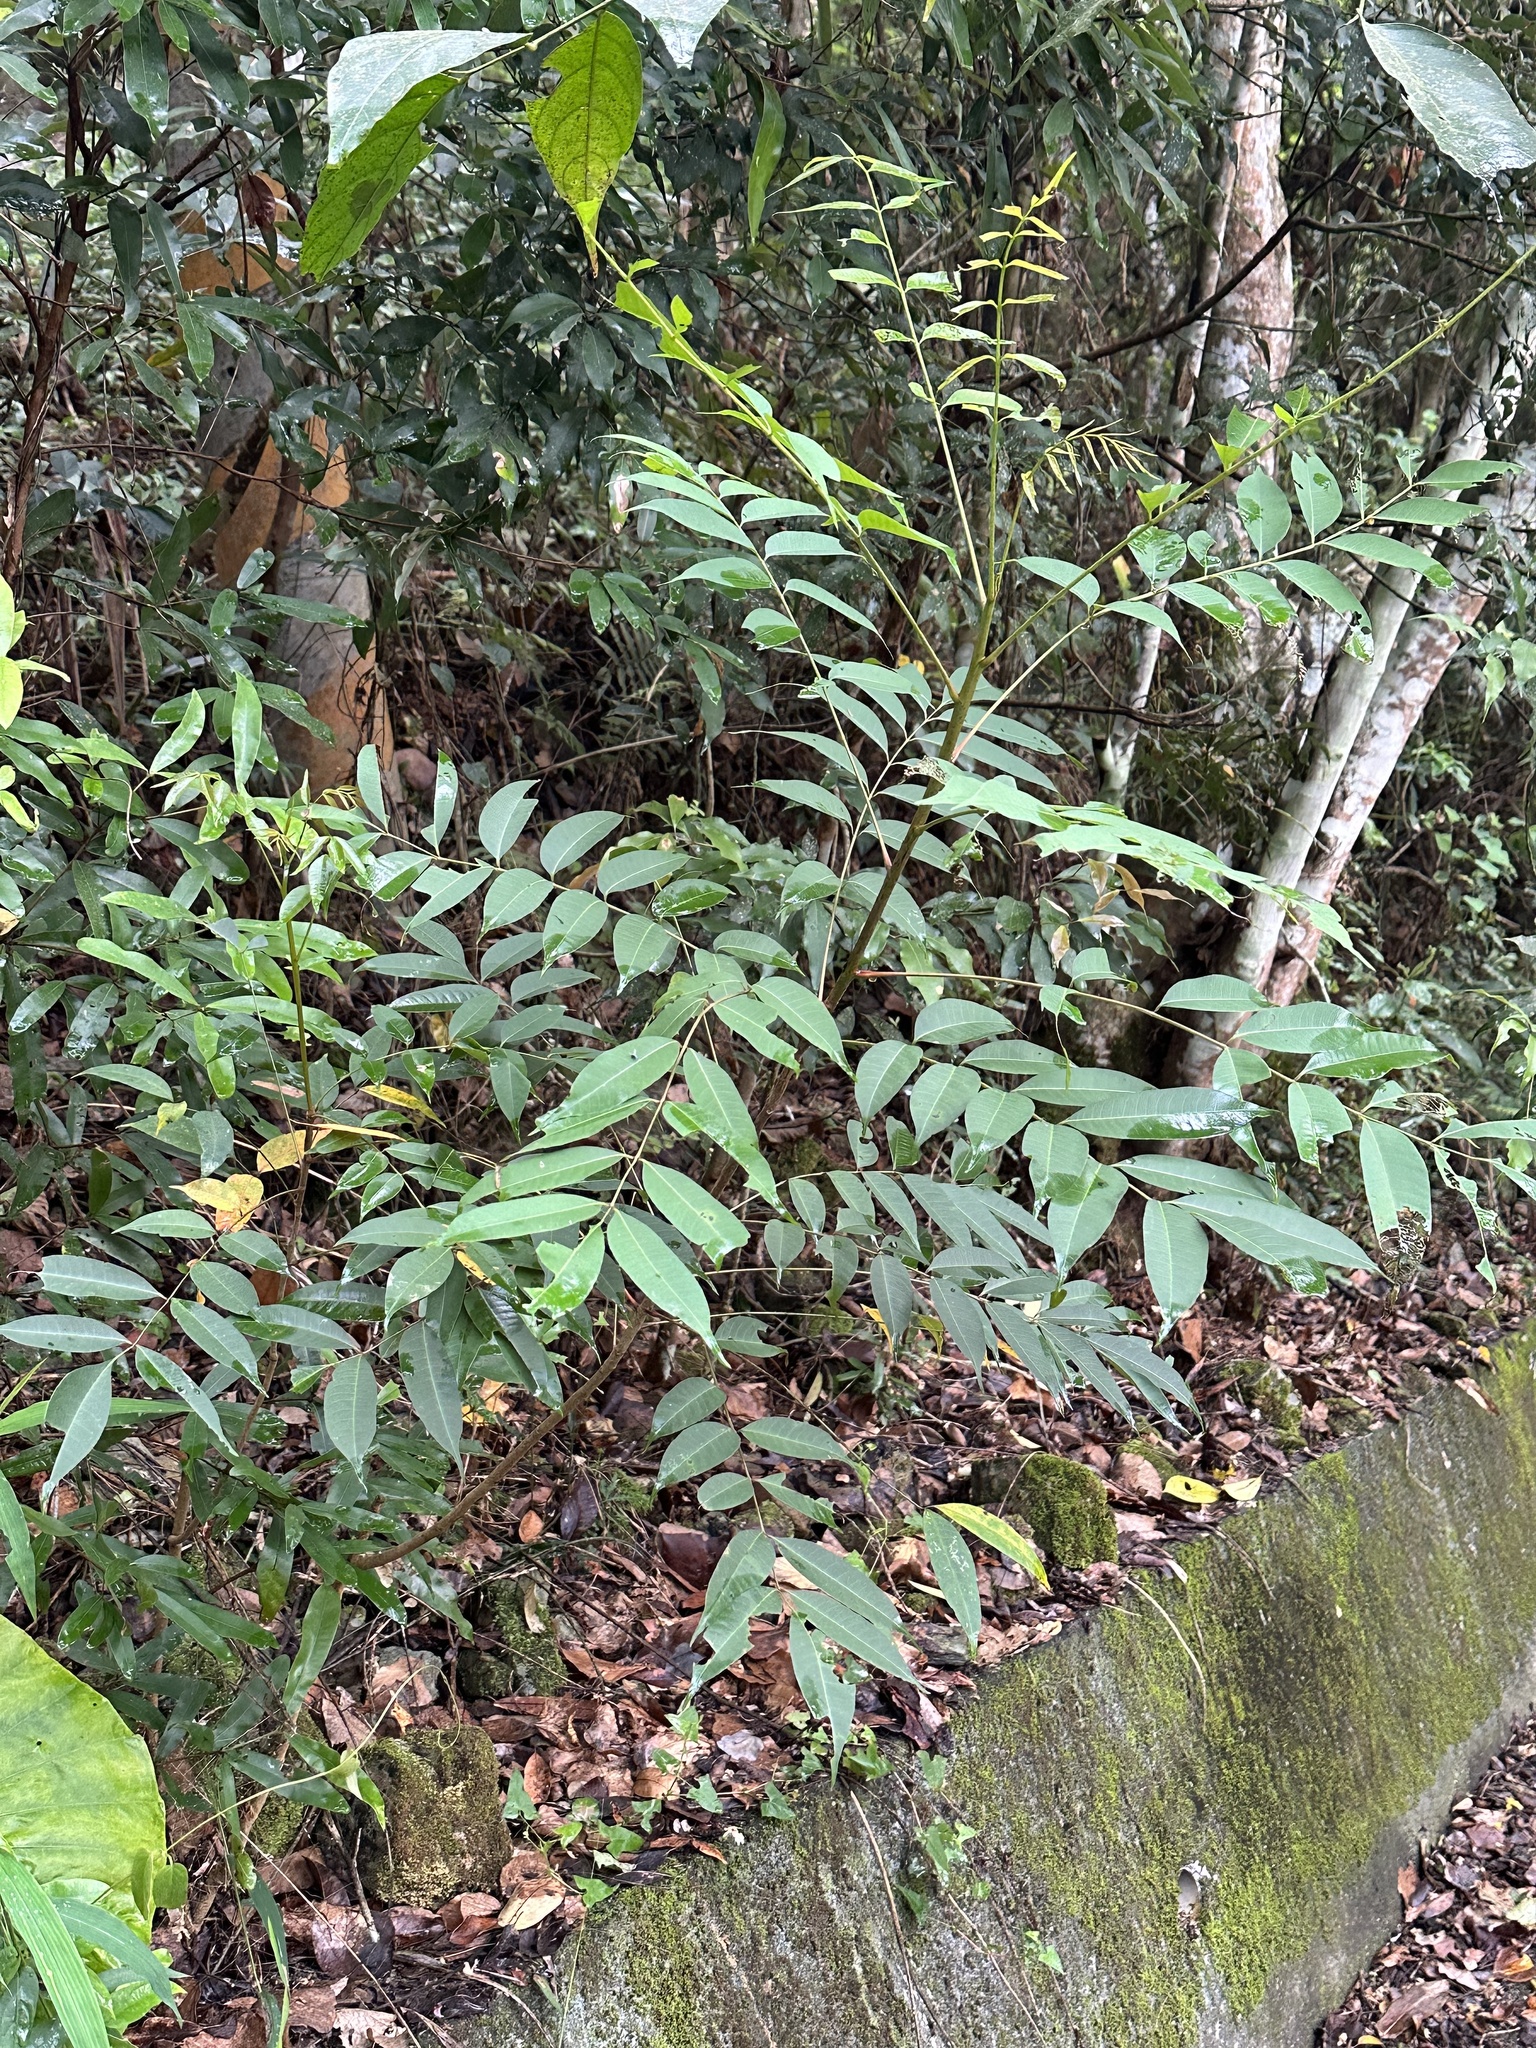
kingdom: Plantae
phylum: Tracheophyta
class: Magnoliopsida
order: Sapindales
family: Anacardiaceae
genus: Toxicodendron
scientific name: Toxicodendron succedaneum
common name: Wax tree
